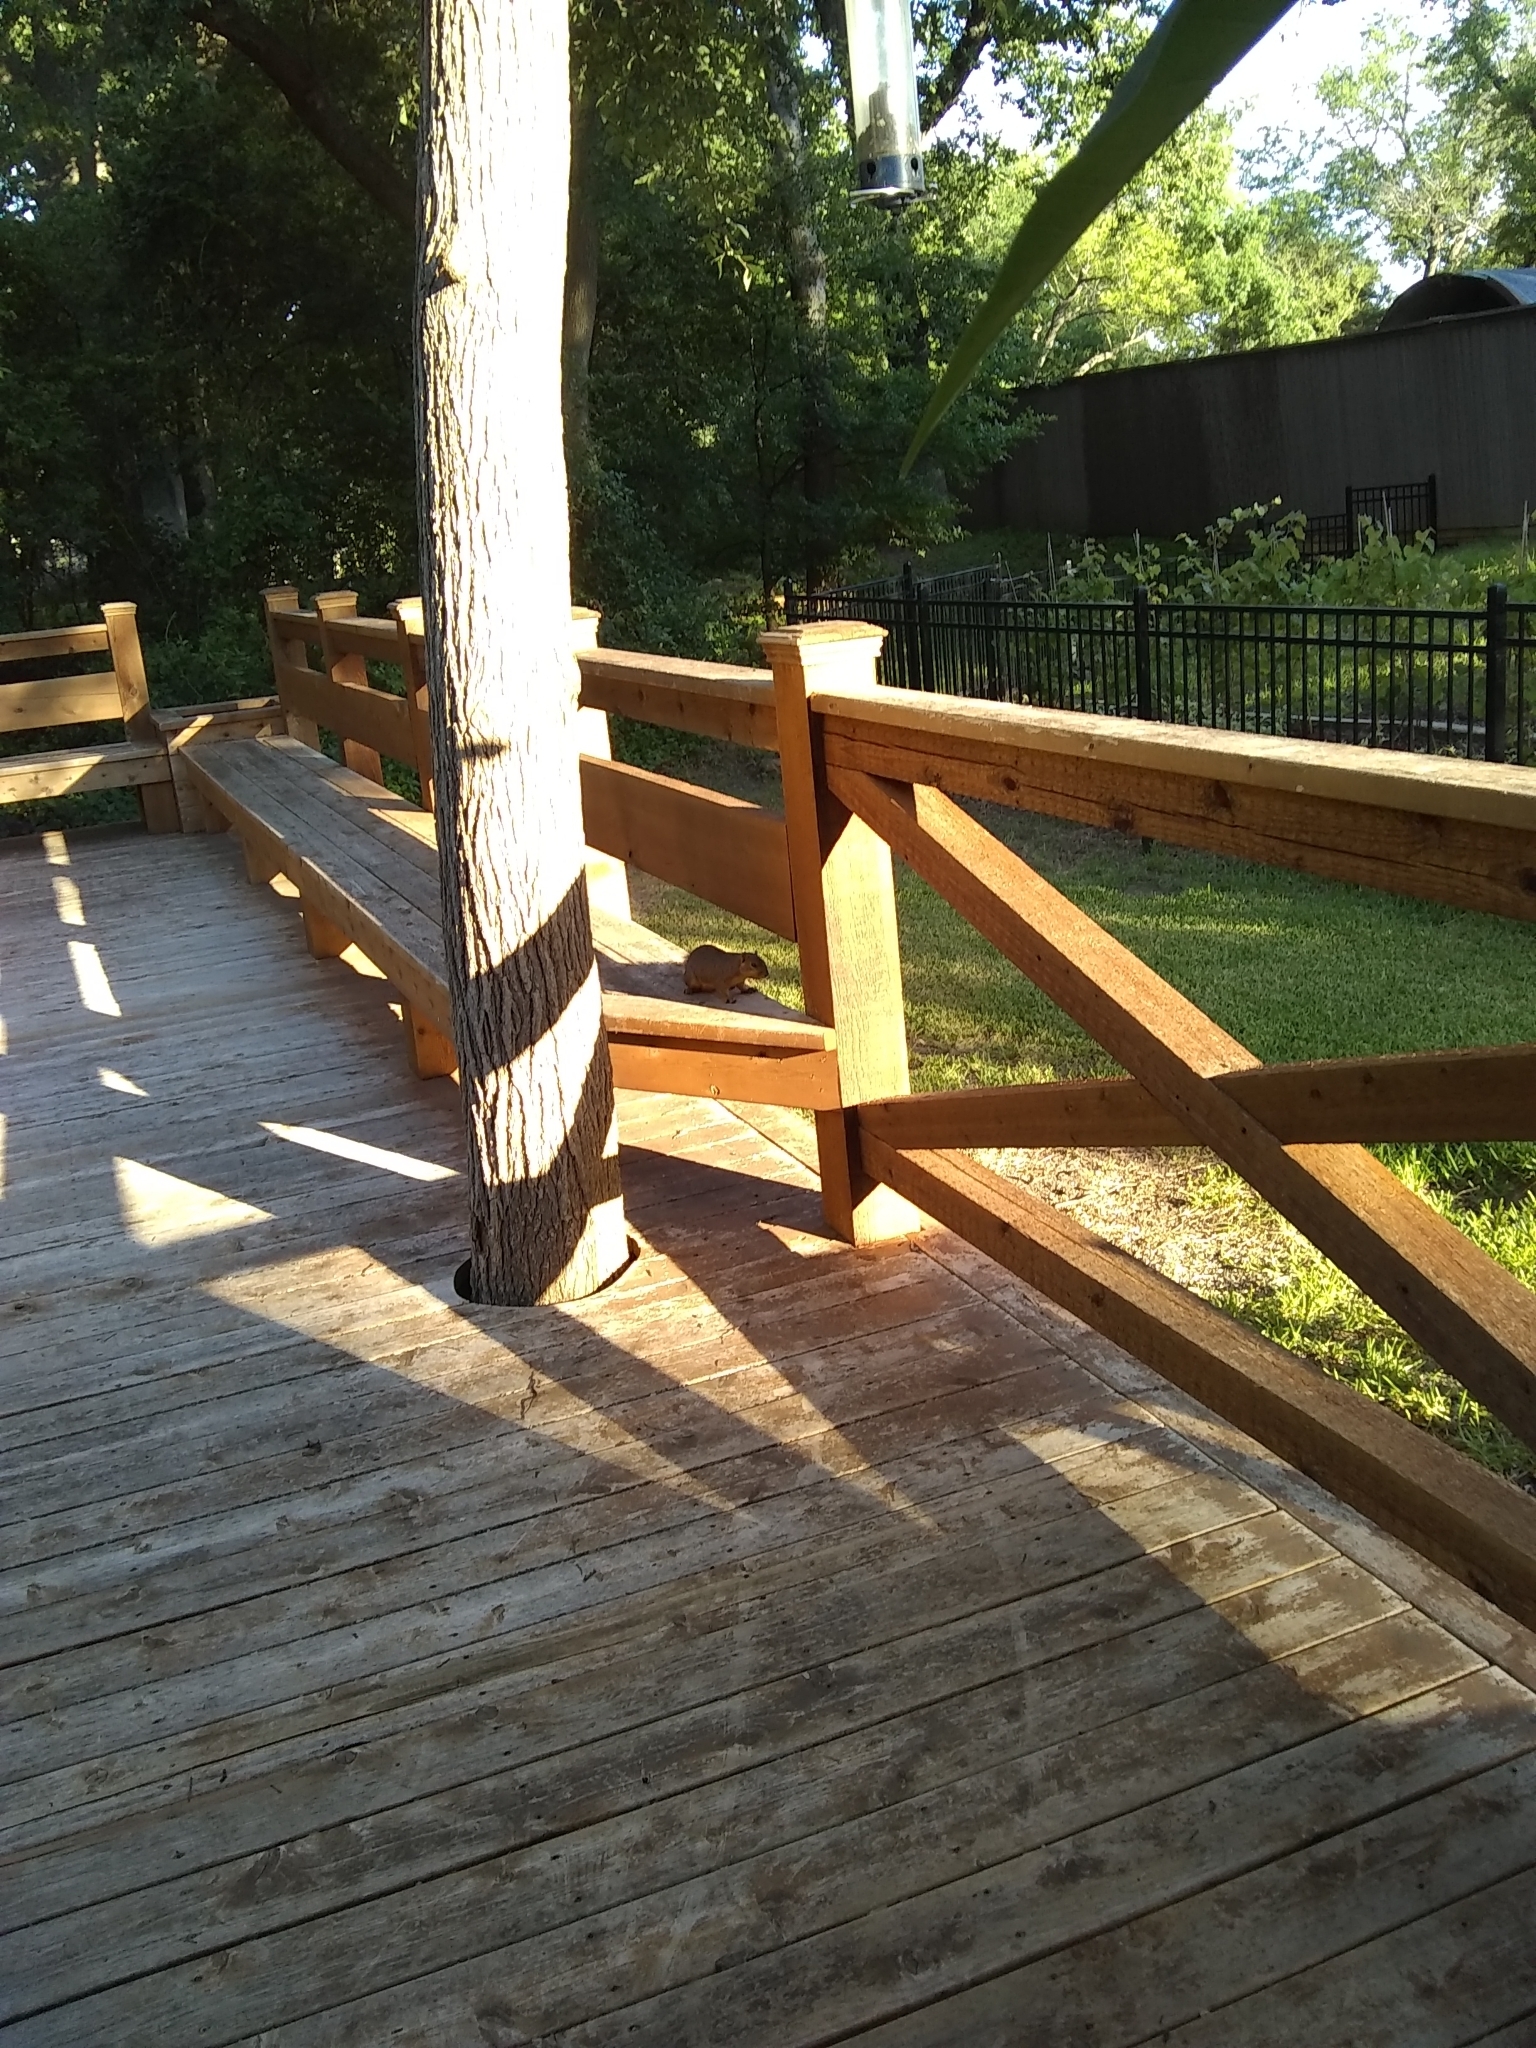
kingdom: Animalia
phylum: Chordata
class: Mammalia
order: Rodentia
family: Sciuridae
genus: Sciurus
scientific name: Sciurus niger
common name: Fox squirrel
